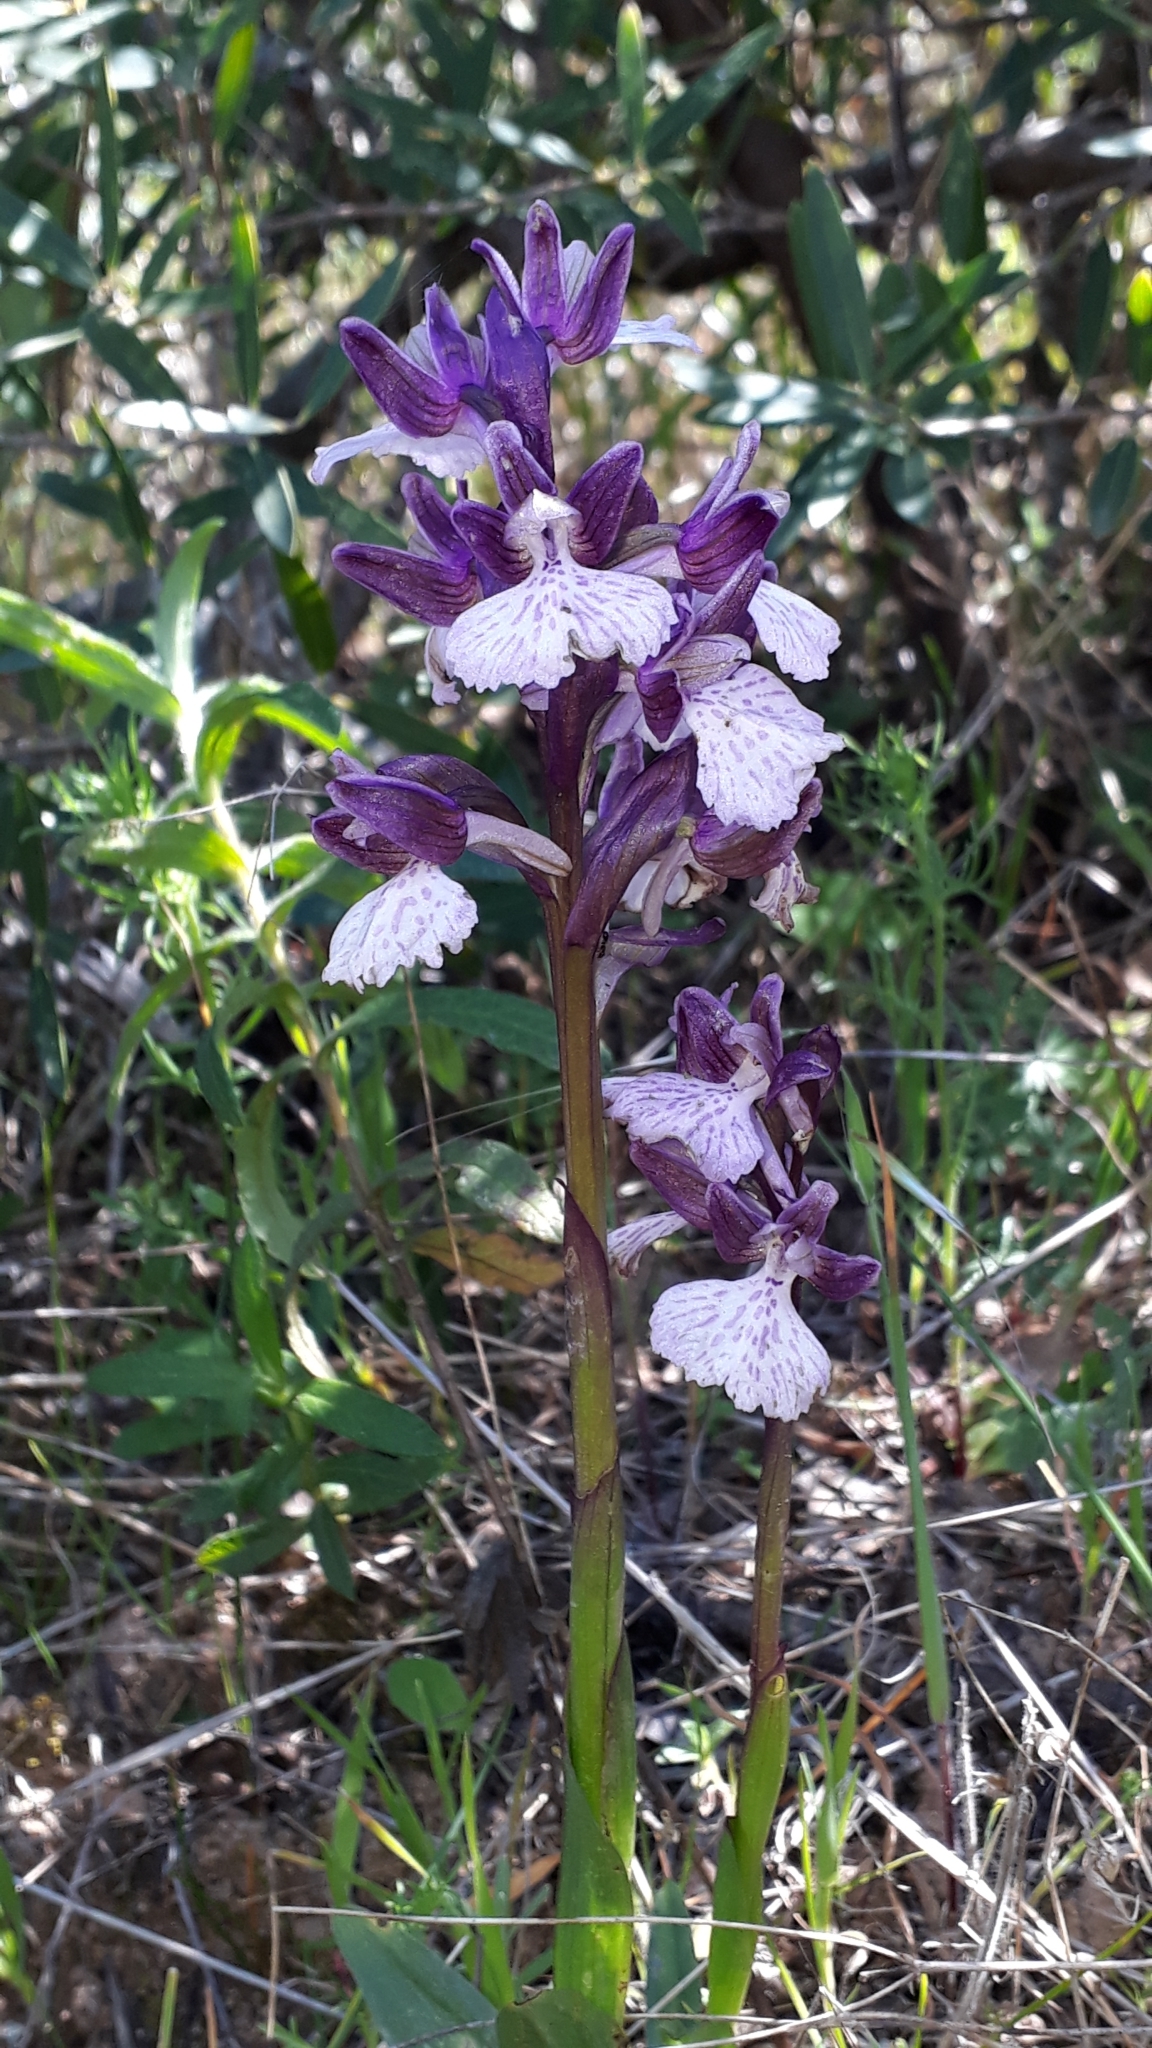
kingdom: Plantae
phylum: Tracheophyta
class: Liliopsida
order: Asparagales
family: Orchidaceae
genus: Anacamptis
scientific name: Anacamptis papilionacea
